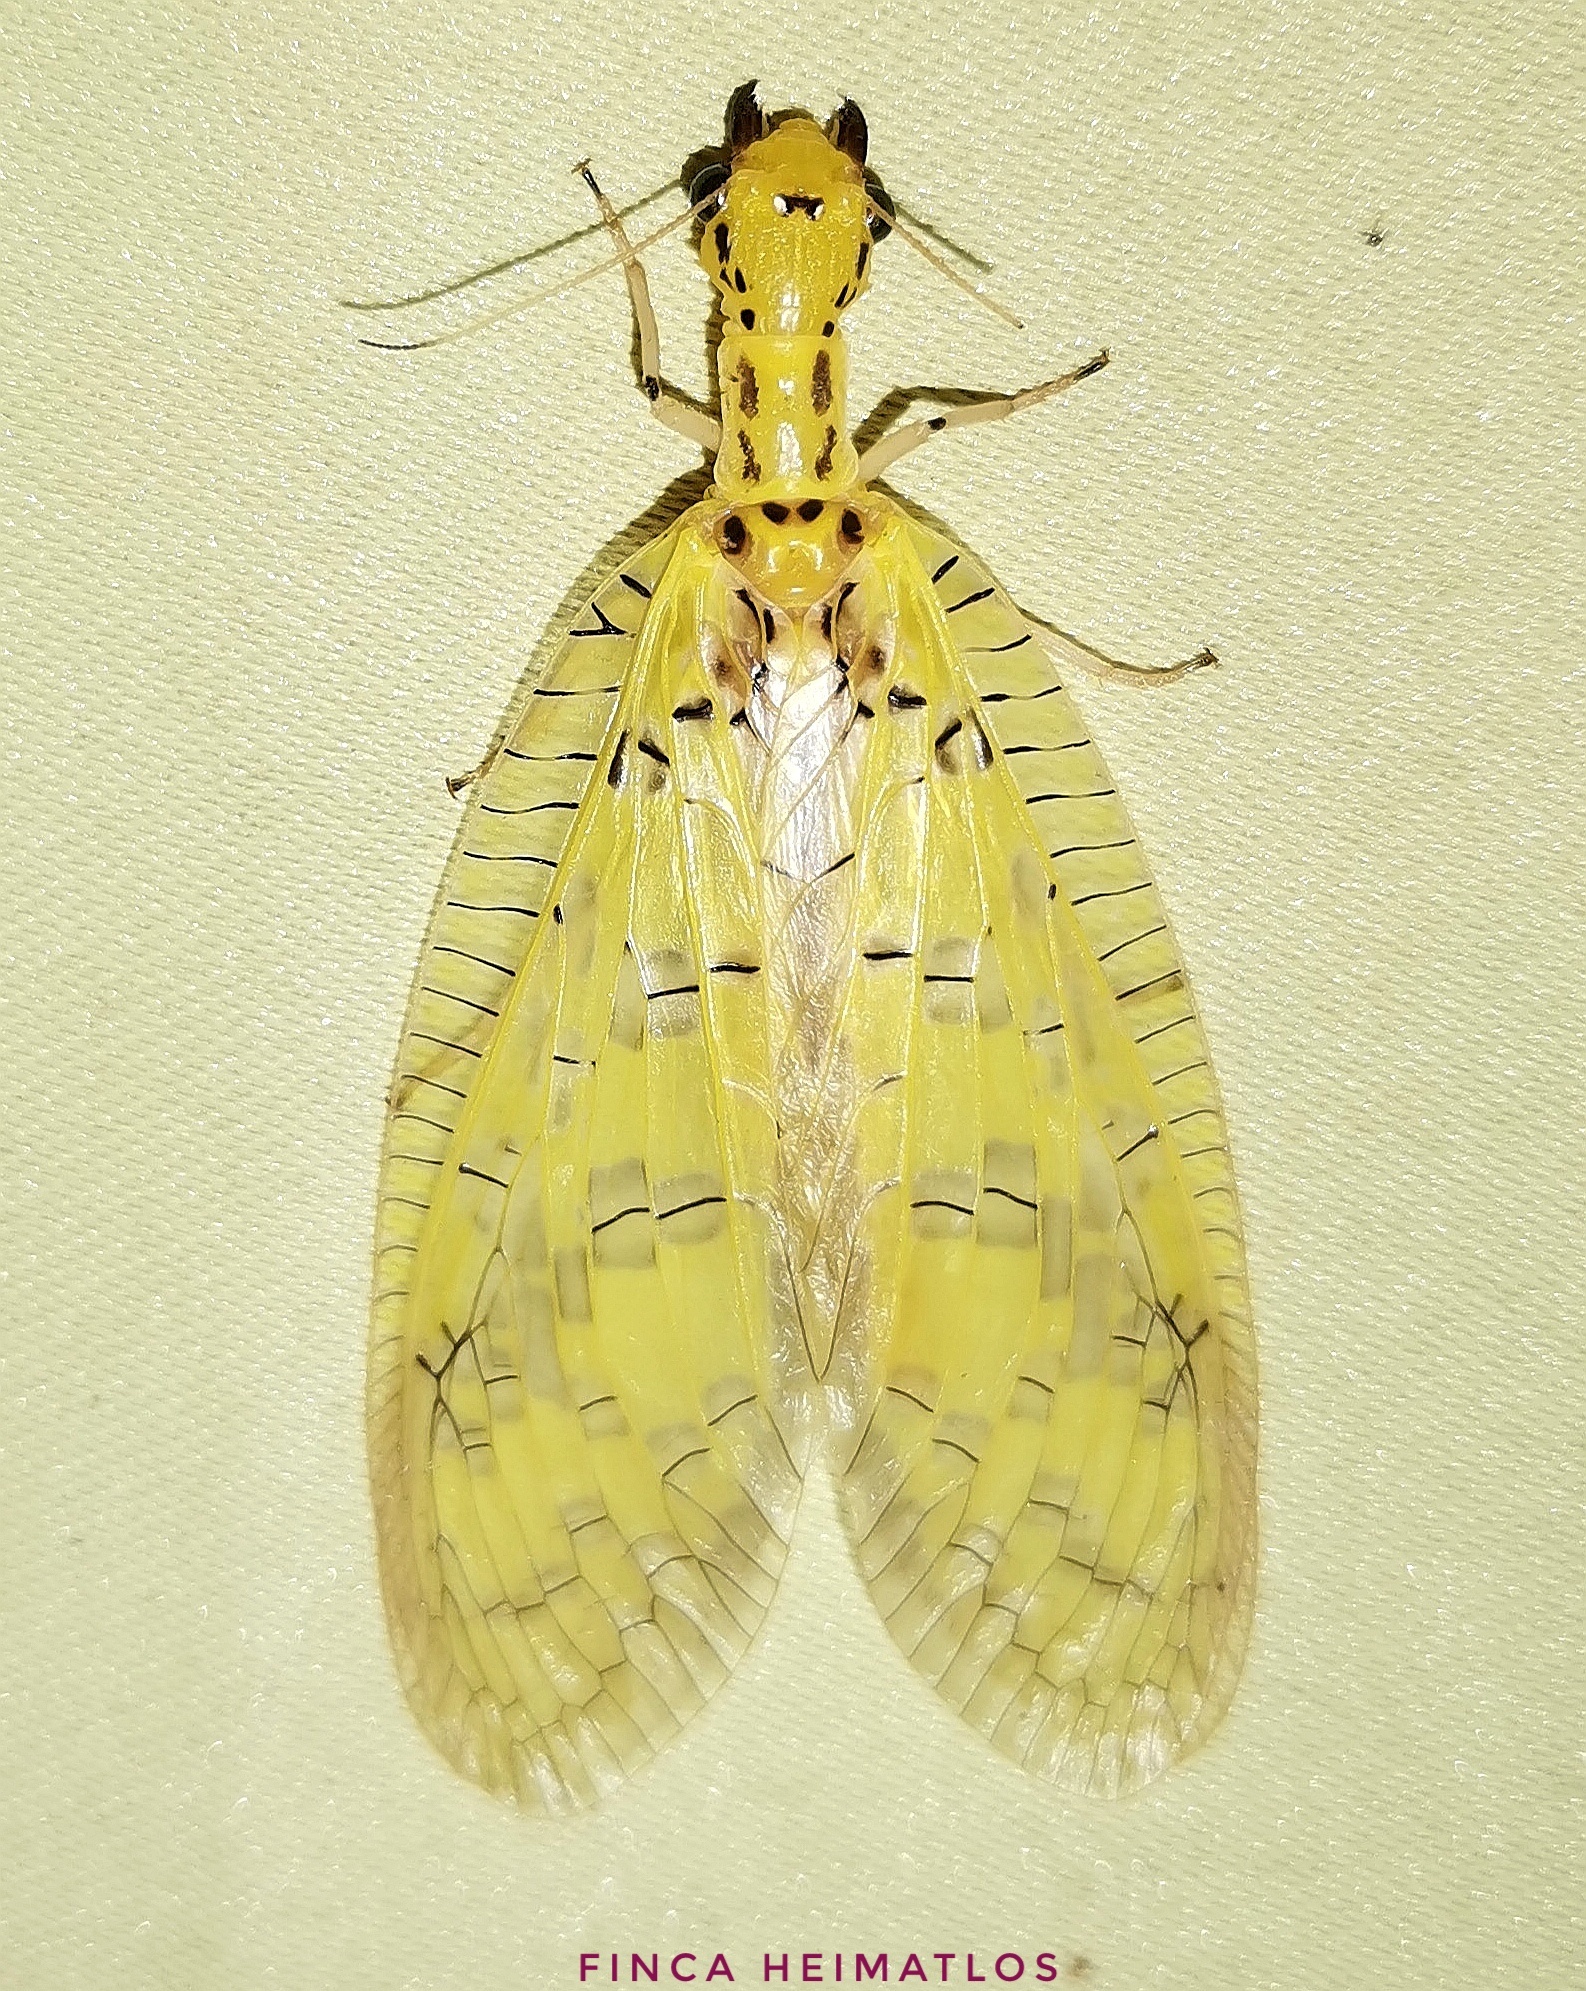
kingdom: Animalia
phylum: Arthropoda
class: Insecta
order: Megaloptera
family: Corydalidae
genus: Chloronia
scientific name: Chloronia yungas
